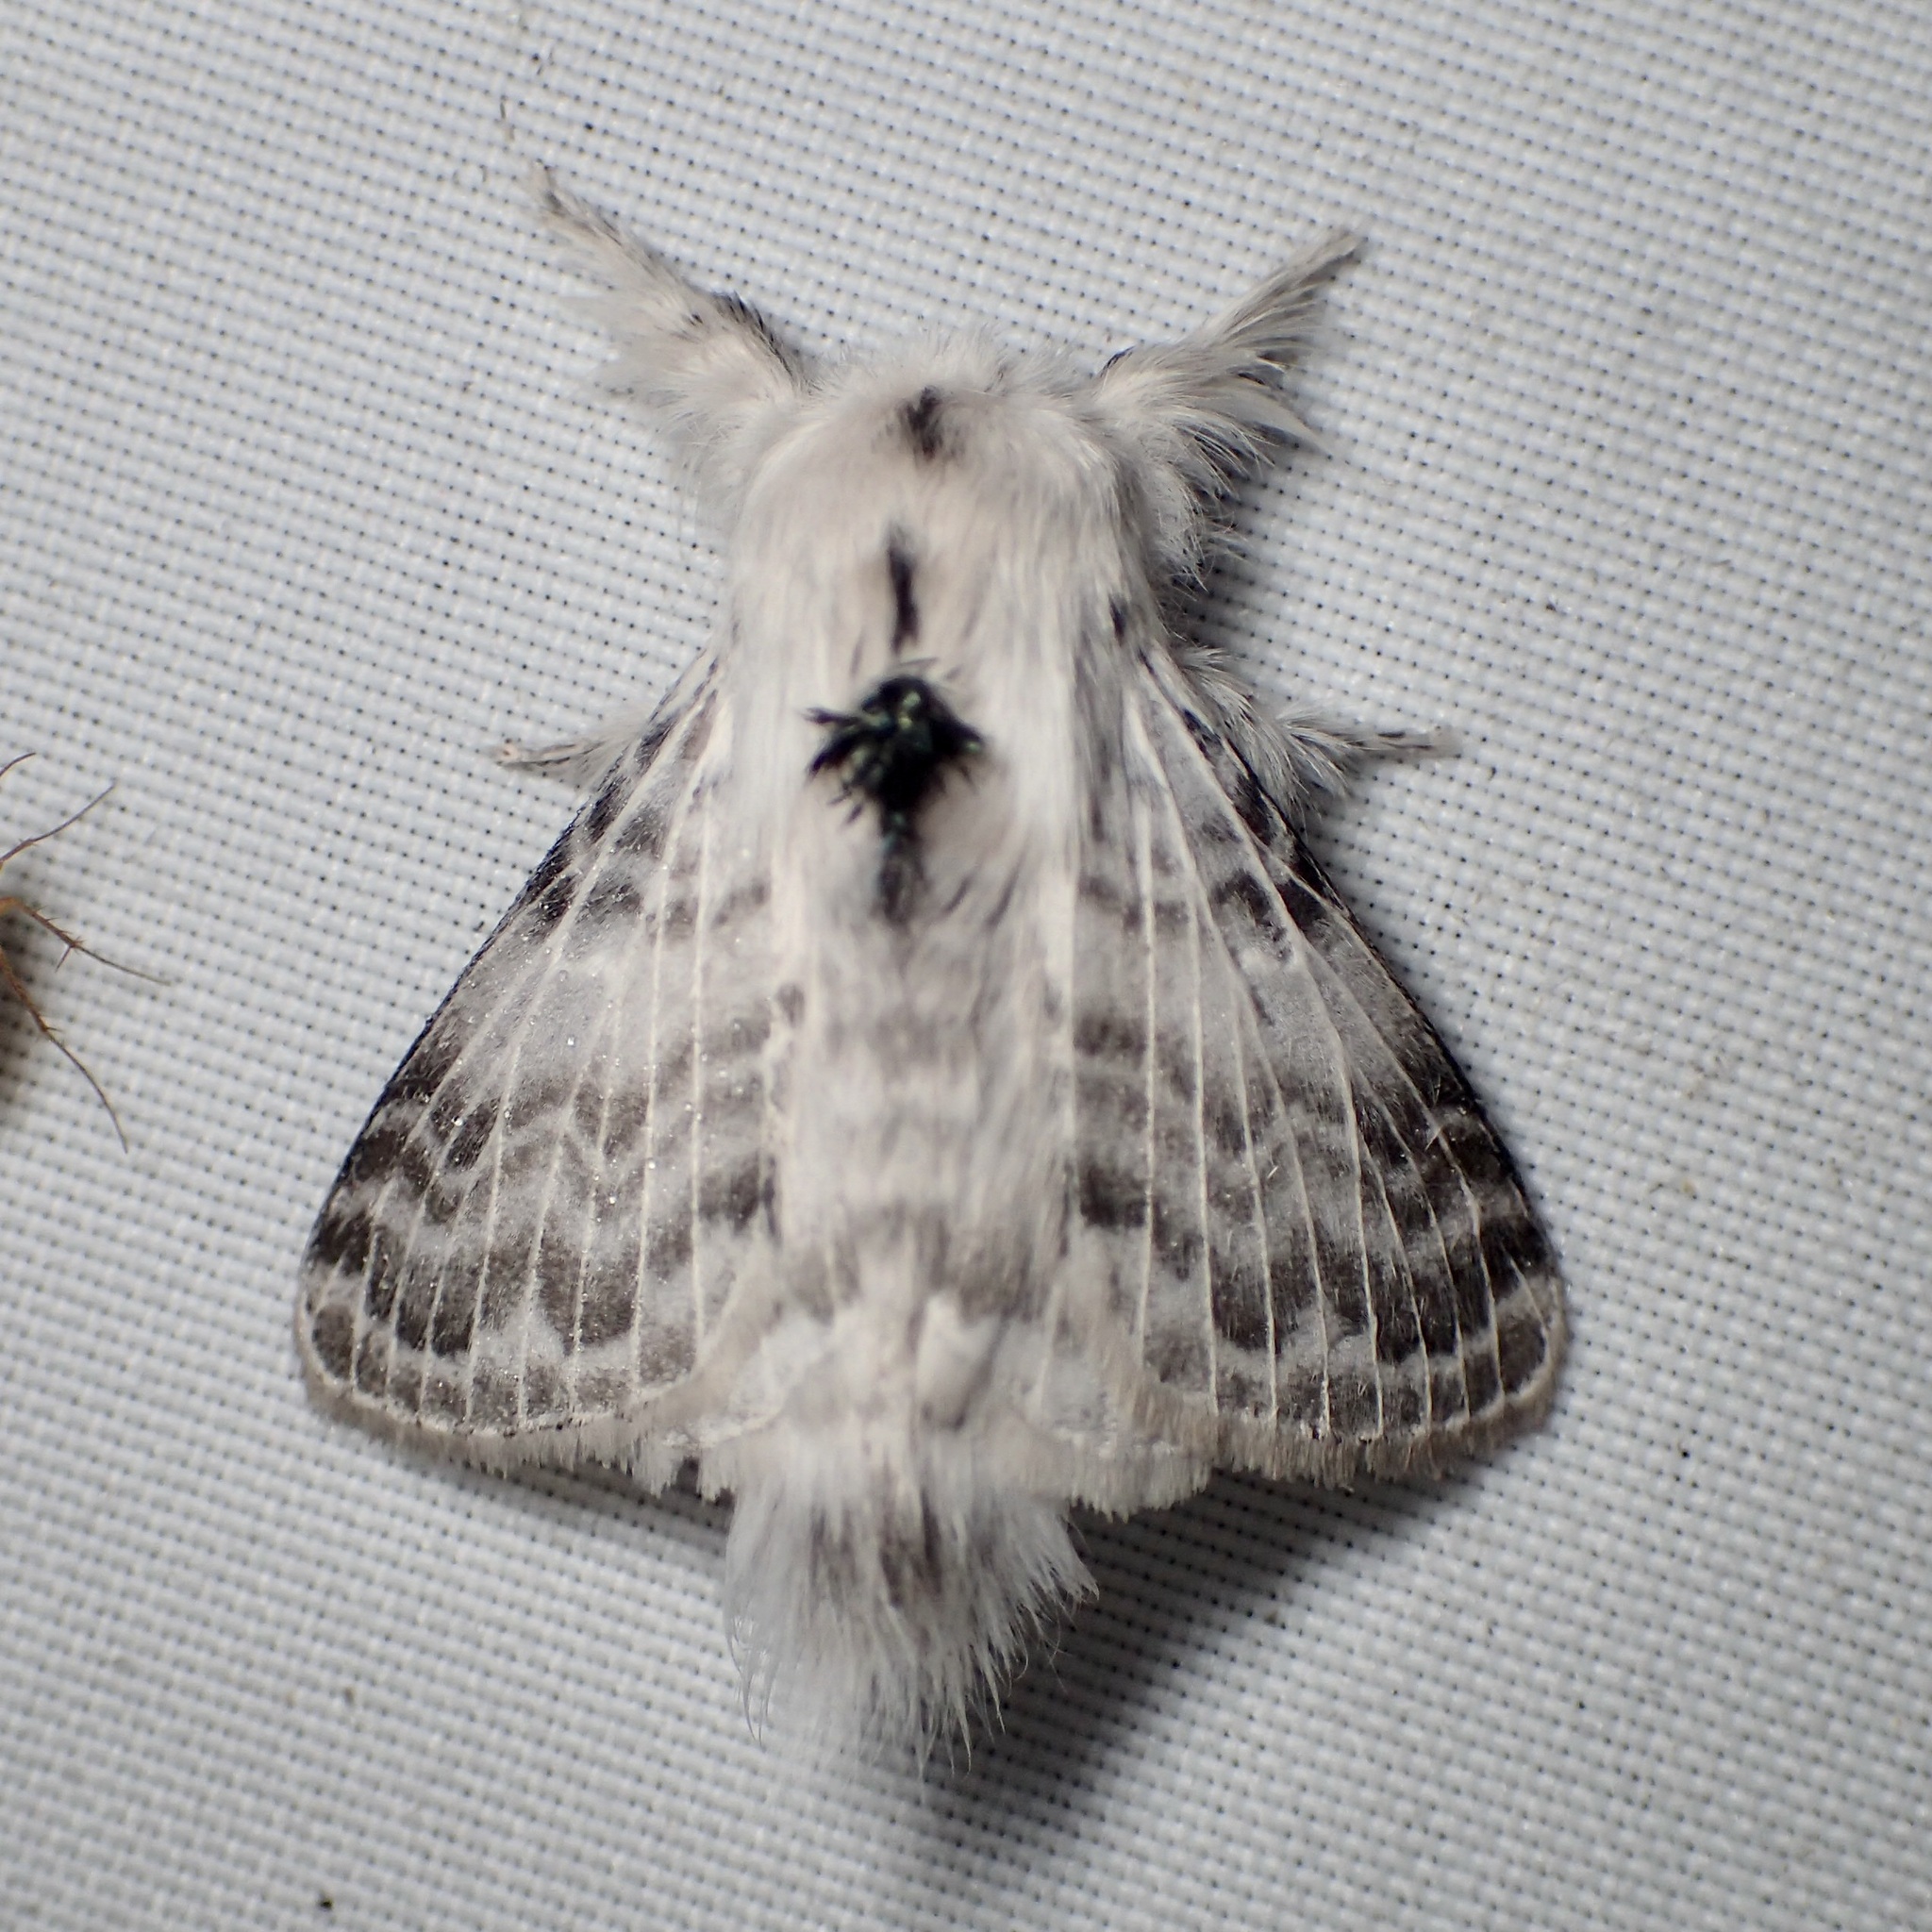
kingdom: Animalia
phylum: Arthropoda
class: Insecta
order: Lepidoptera
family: Lasiocampidae
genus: Apotolype
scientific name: Apotolype brevicrista
